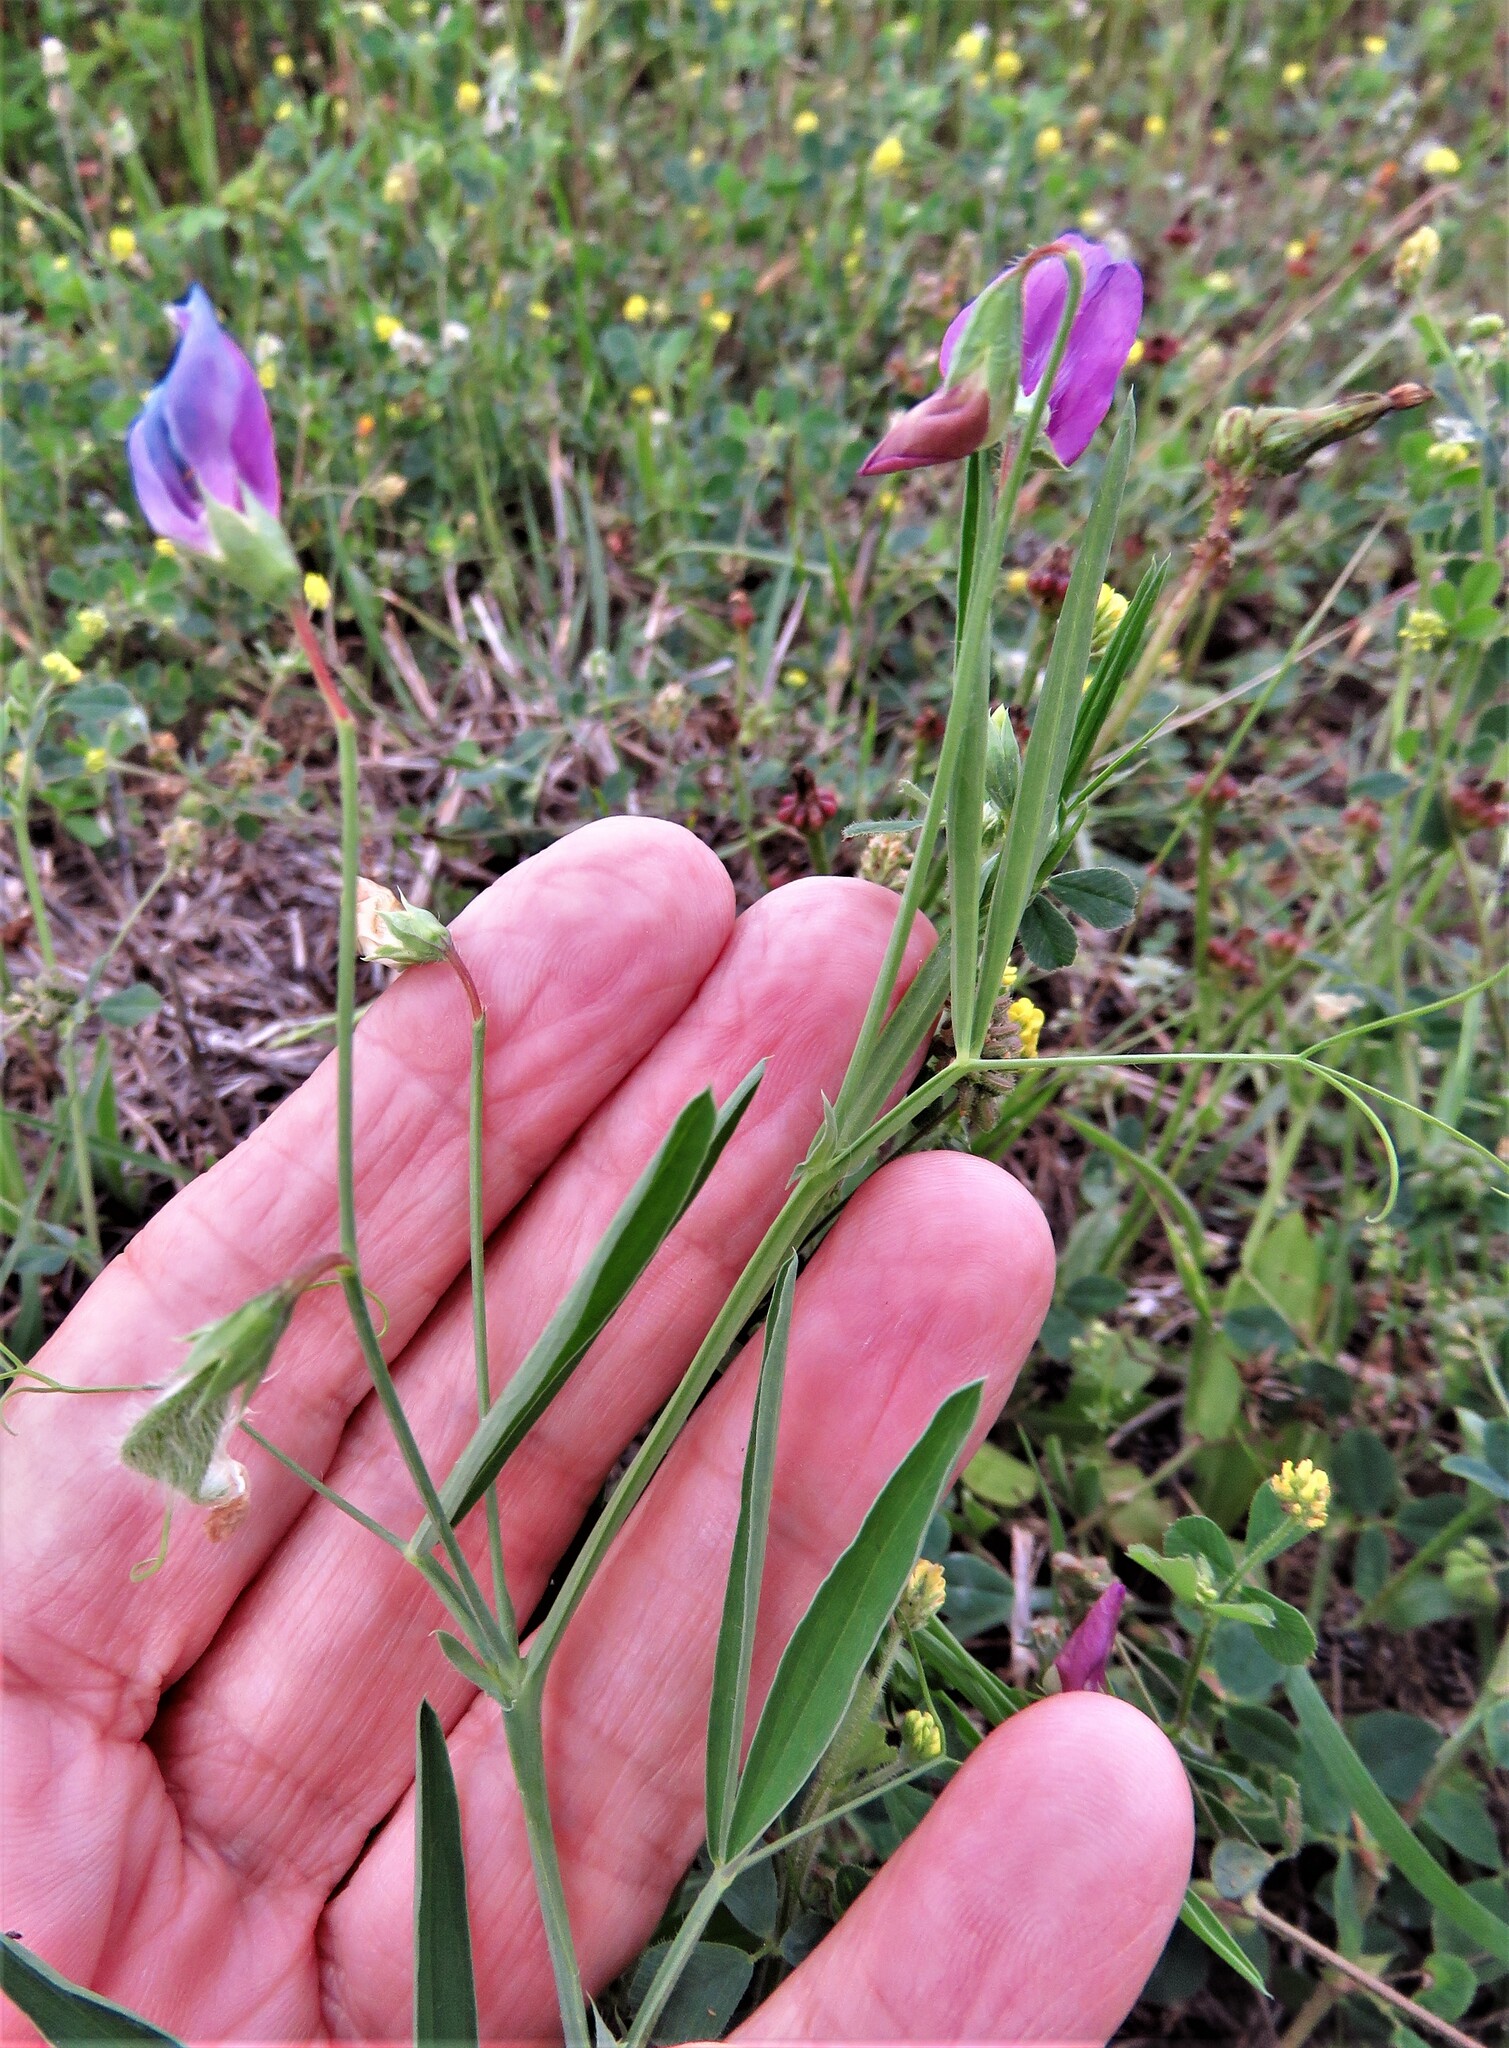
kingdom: Plantae
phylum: Tracheophyta
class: Magnoliopsida
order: Fabales
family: Fabaceae
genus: Lathyrus
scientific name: Lathyrus hirsutus
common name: Hairy vetchling
